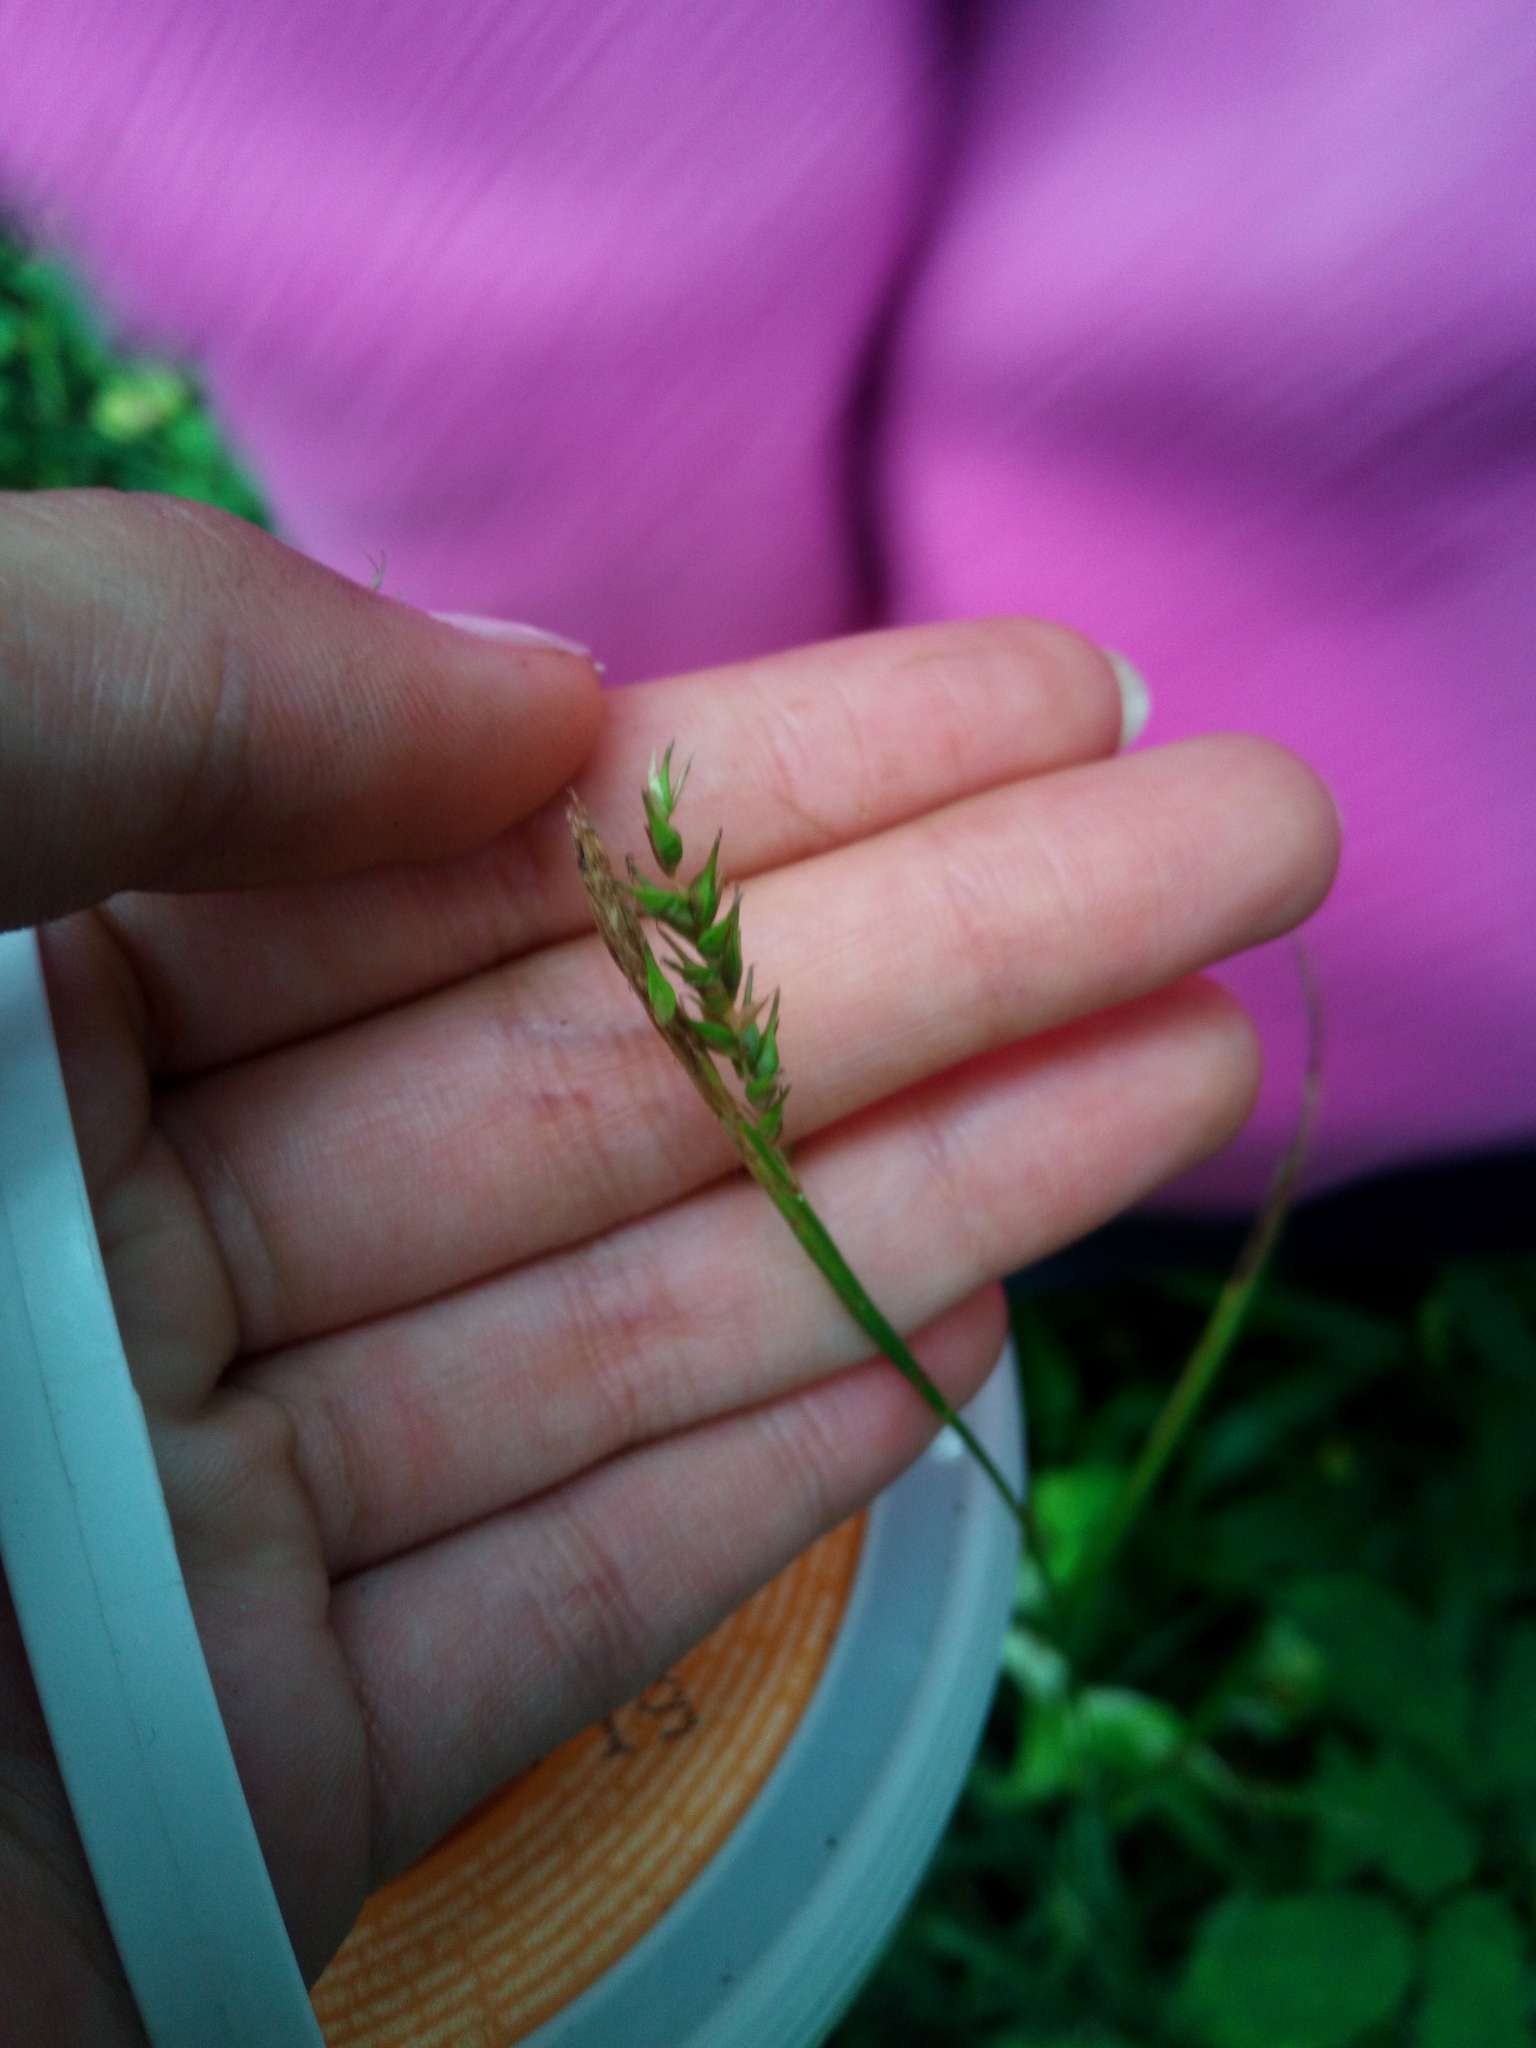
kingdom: Plantae
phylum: Tracheophyta
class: Liliopsida
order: Poales
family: Cyperaceae
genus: Carex
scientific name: Carex sylvatica
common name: Wood-sedge
